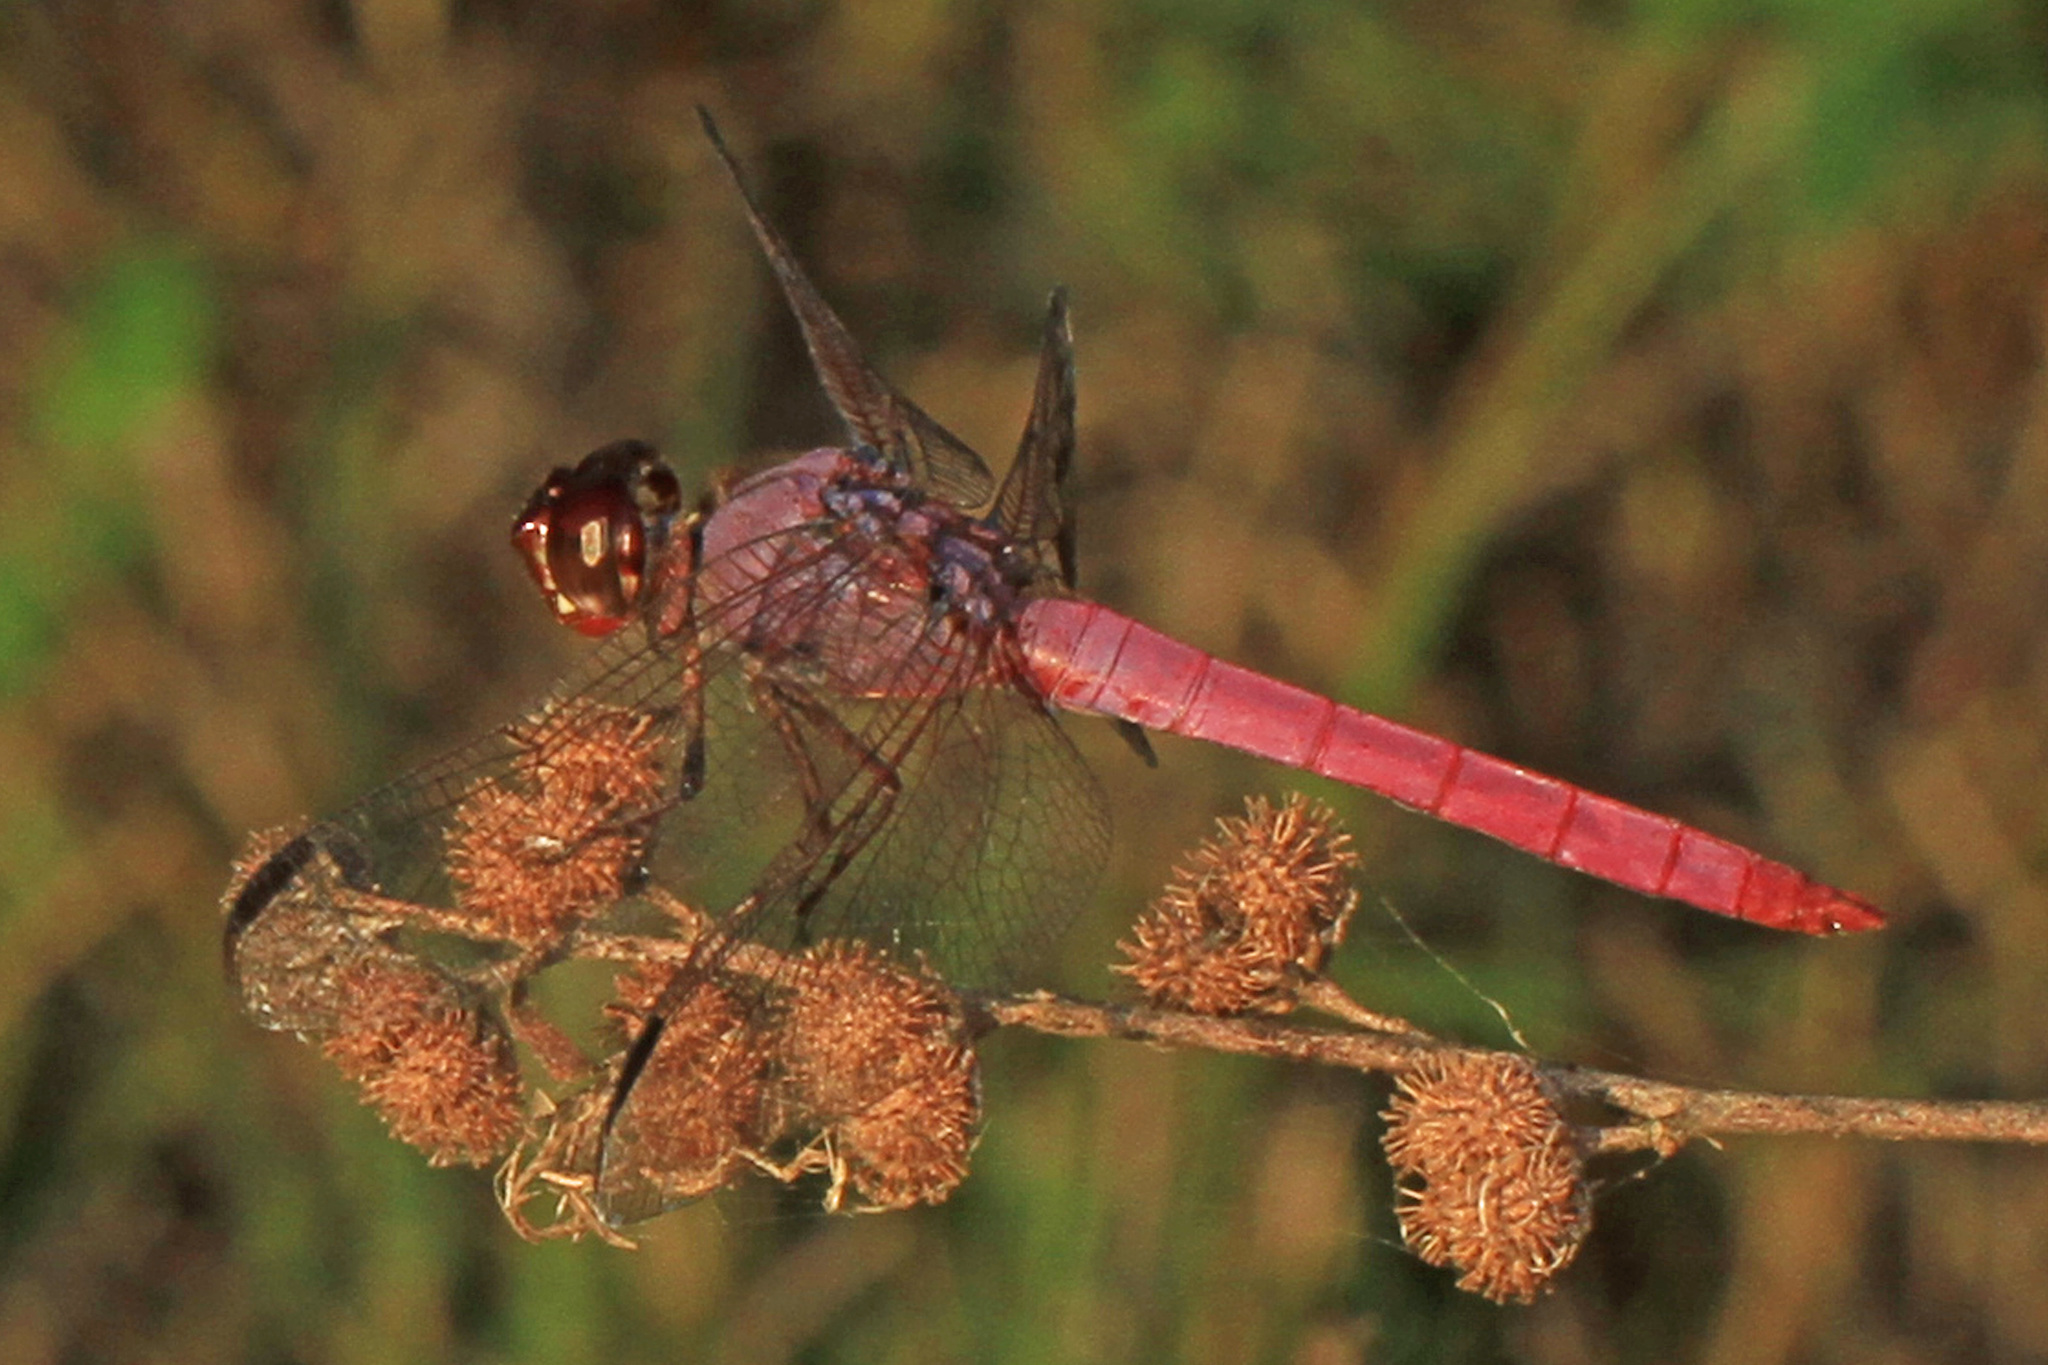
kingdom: Animalia
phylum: Arthropoda
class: Insecta
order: Odonata
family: Libellulidae
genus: Orthemis
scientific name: Orthemis ferruginea
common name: Roseate skimmer
